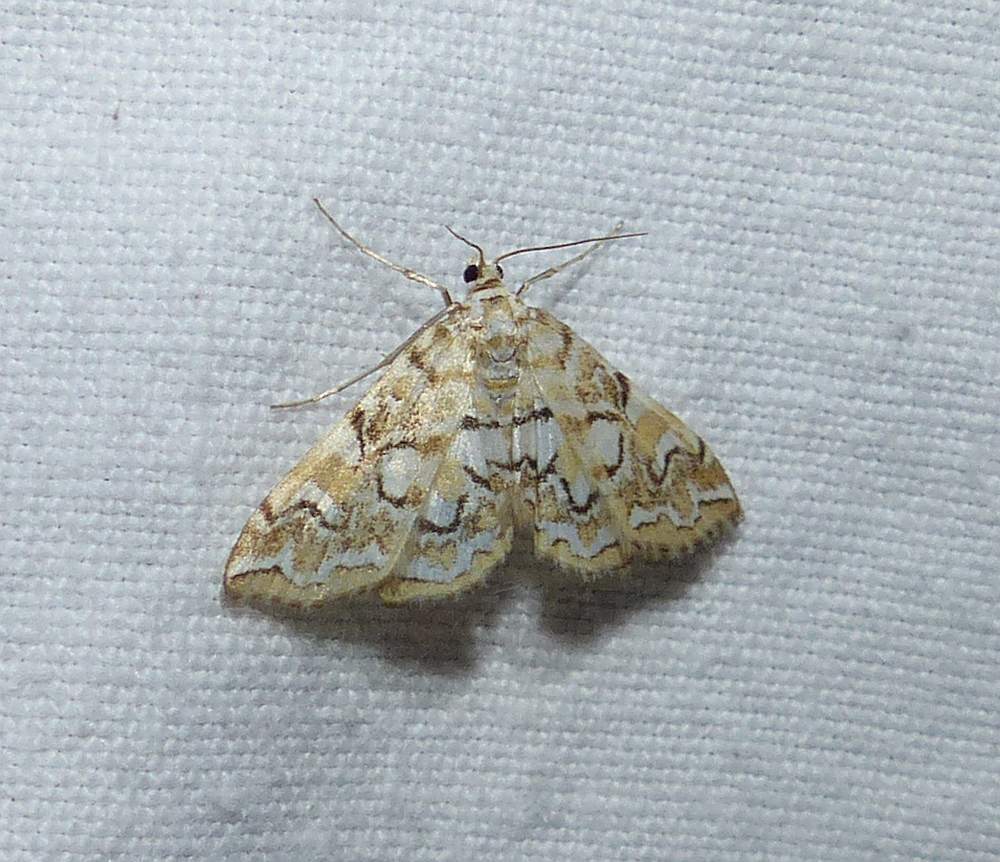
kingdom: Animalia
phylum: Arthropoda
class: Insecta
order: Lepidoptera
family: Crambidae
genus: Elophila
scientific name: Elophila icciusalis
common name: Pondside pyralid moth
